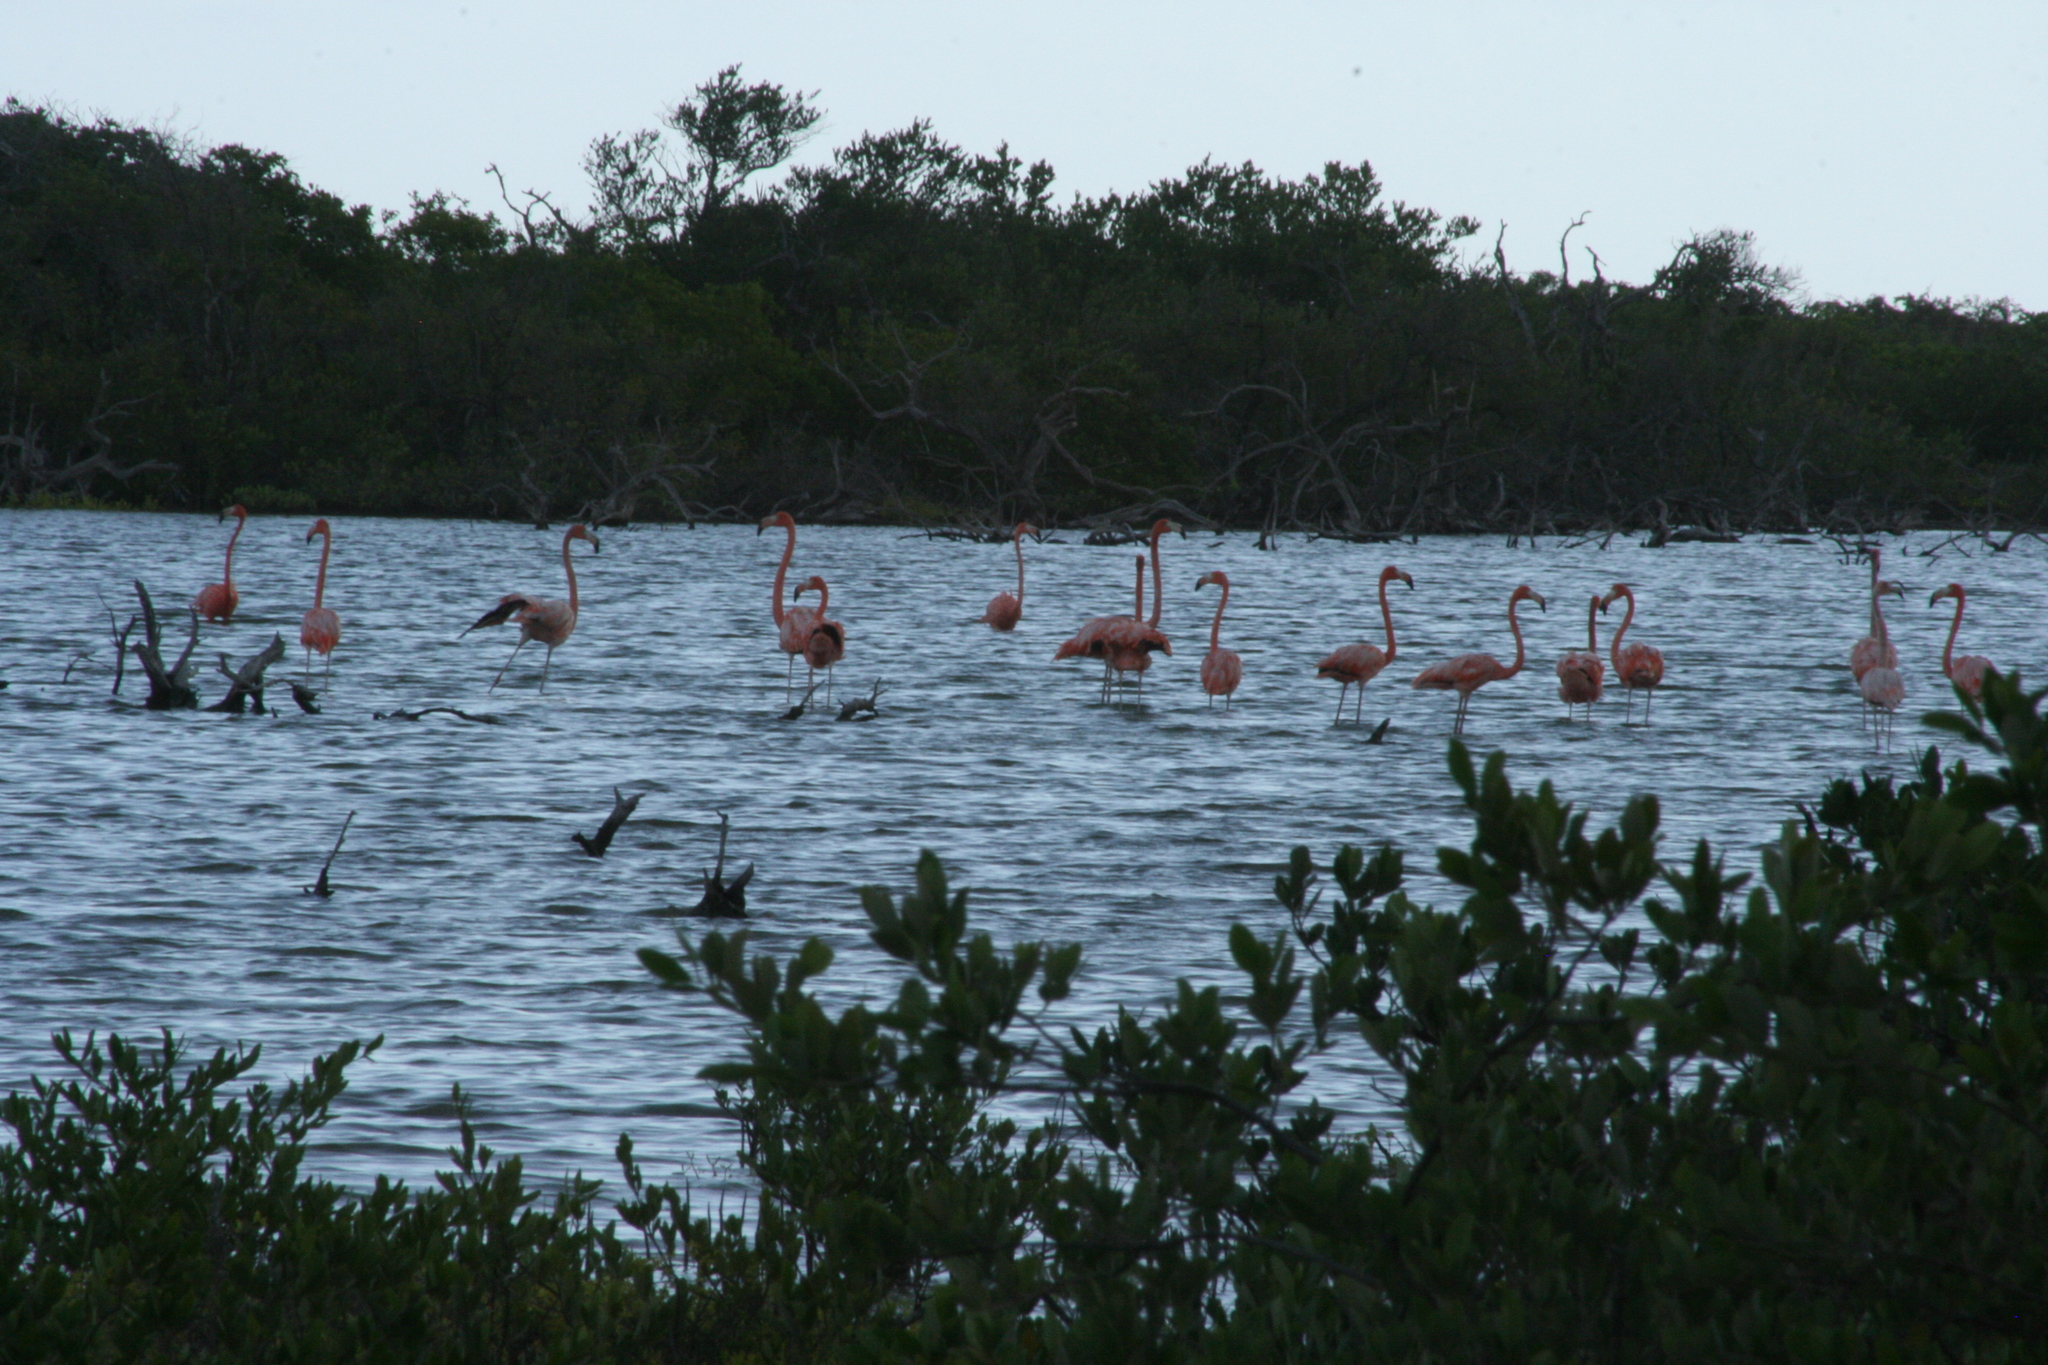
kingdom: Animalia
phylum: Chordata
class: Aves
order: Phoenicopteriformes
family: Phoenicopteridae
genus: Phoenicopterus
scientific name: Phoenicopterus ruber
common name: American flamingo
